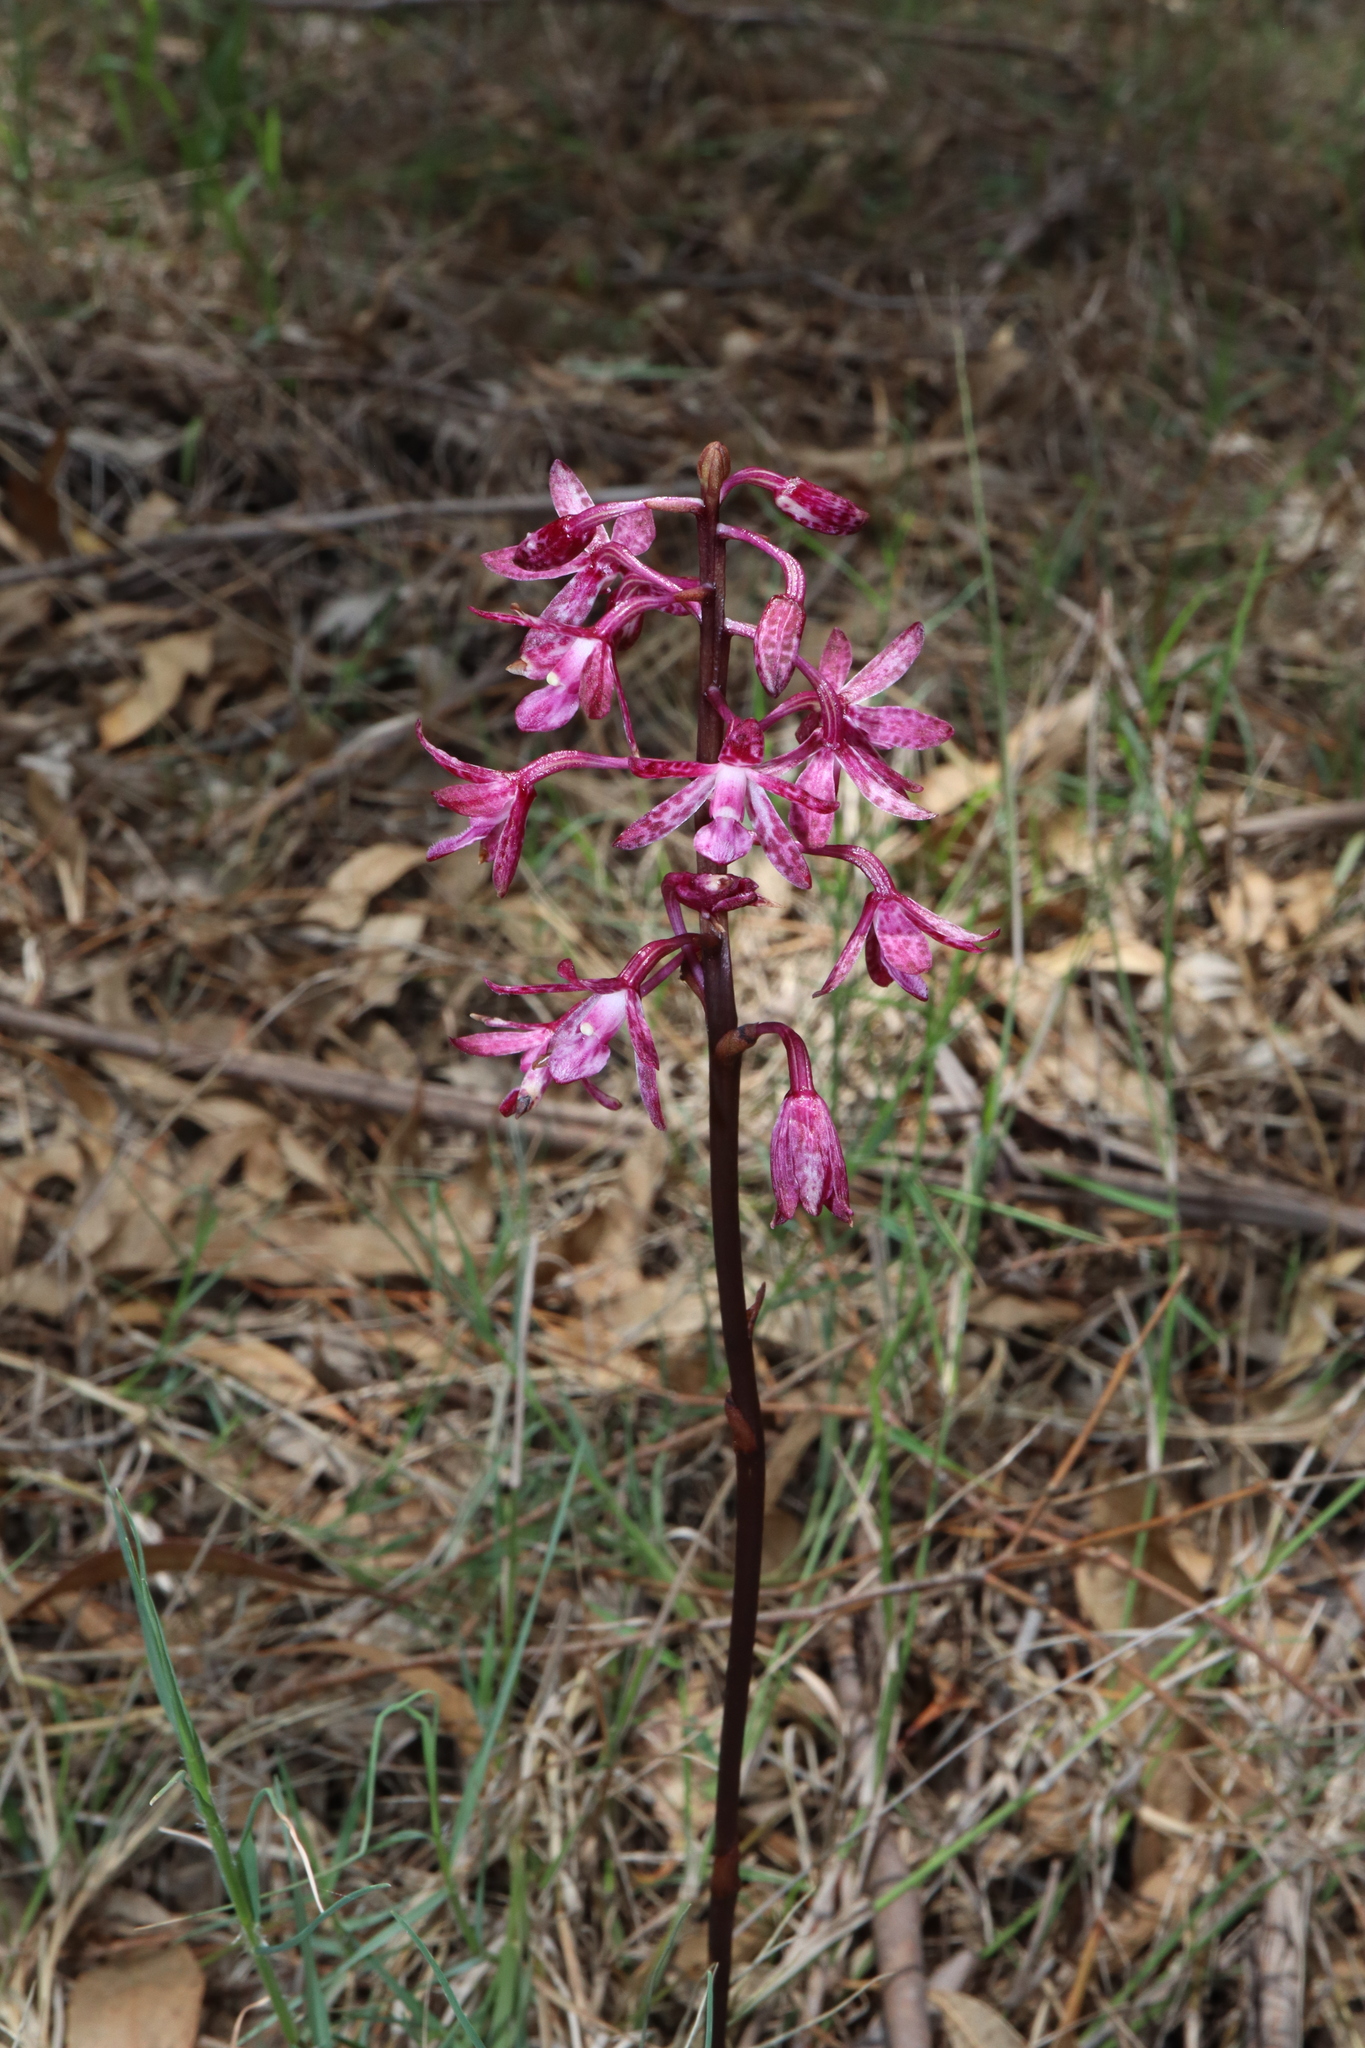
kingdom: Plantae
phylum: Tracheophyta
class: Liliopsida
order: Asparagales
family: Orchidaceae
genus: Dipodium
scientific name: Dipodium squamatum
